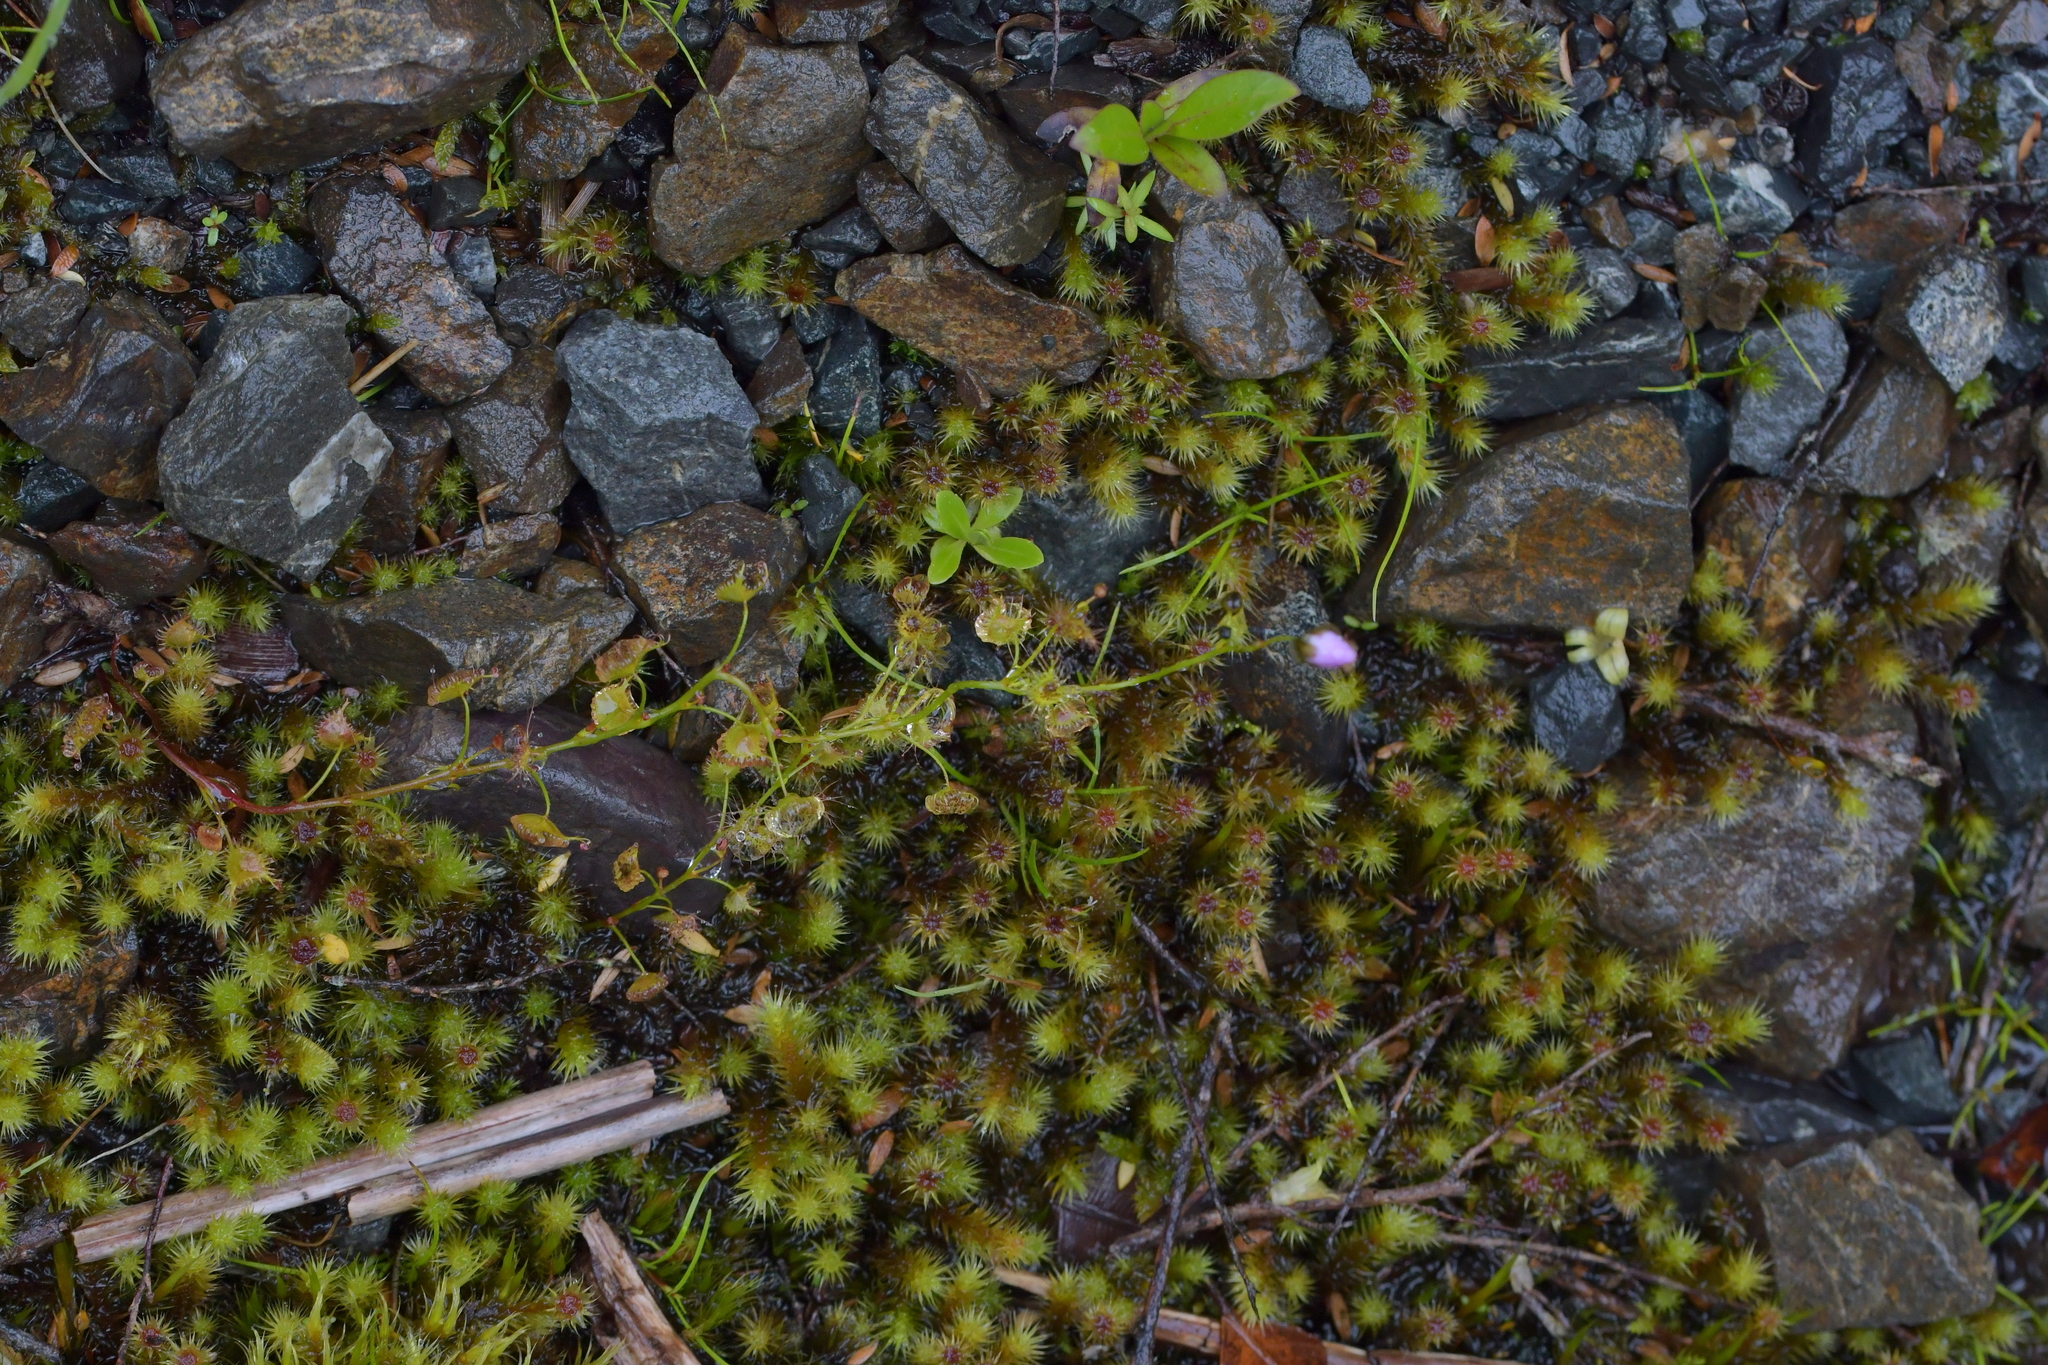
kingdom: Plantae
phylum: Tracheophyta
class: Magnoliopsida
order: Caryophyllales
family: Droseraceae
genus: Drosera
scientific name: Drosera peltata
